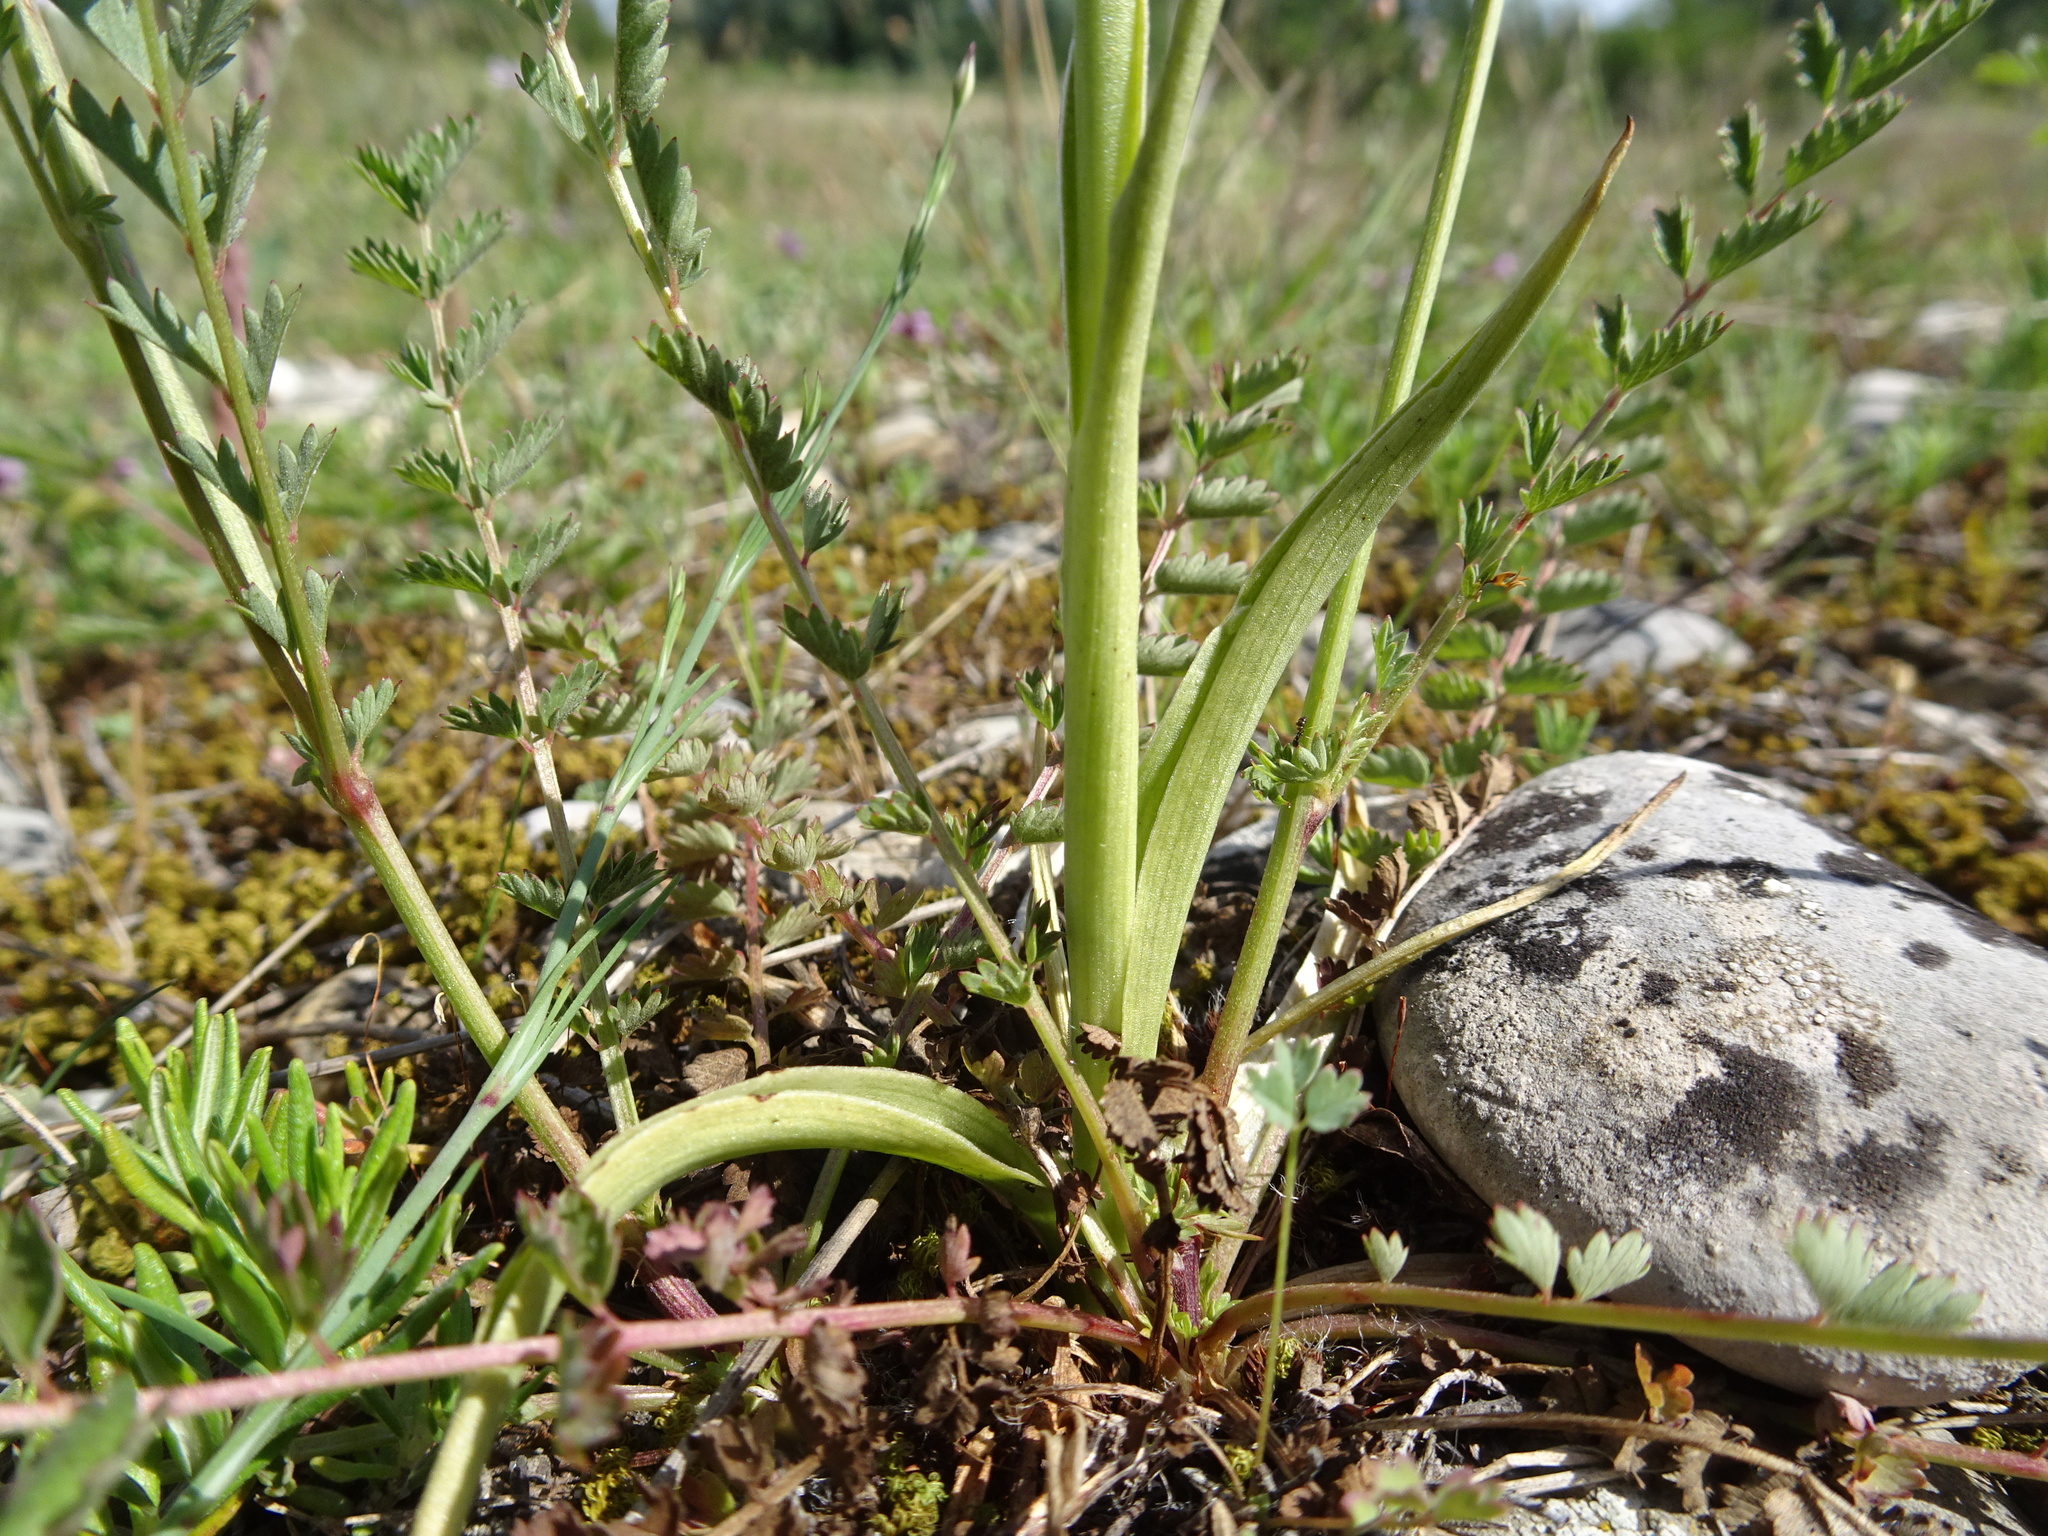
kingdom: Plantae
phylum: Tracheophyta
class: Liliopsida
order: Asparagales
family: Orchidaceae
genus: Anacamptis
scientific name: Anacamptis coriophora
